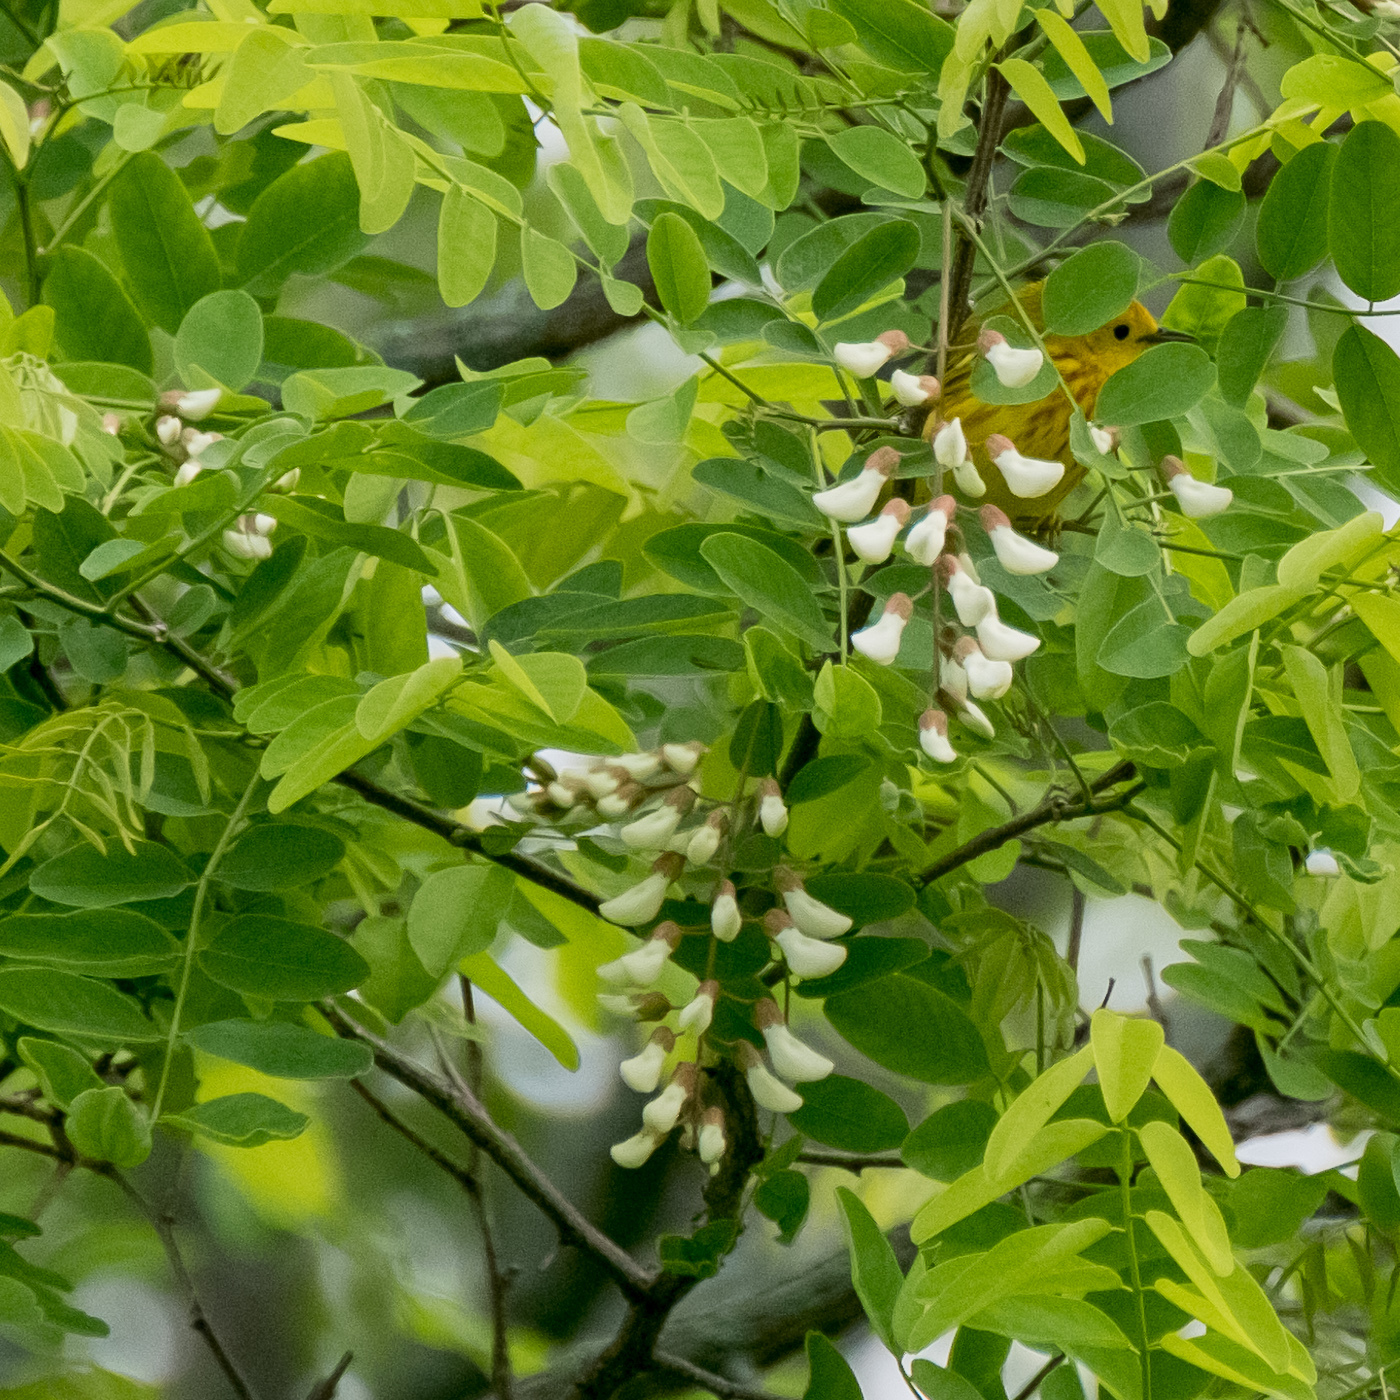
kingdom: Plantae
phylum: Tracheophyta
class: Magnoliopsida
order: Fabales
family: Fabaceae
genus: Robinia
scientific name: Robinia pseudoacacia
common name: Black locust
